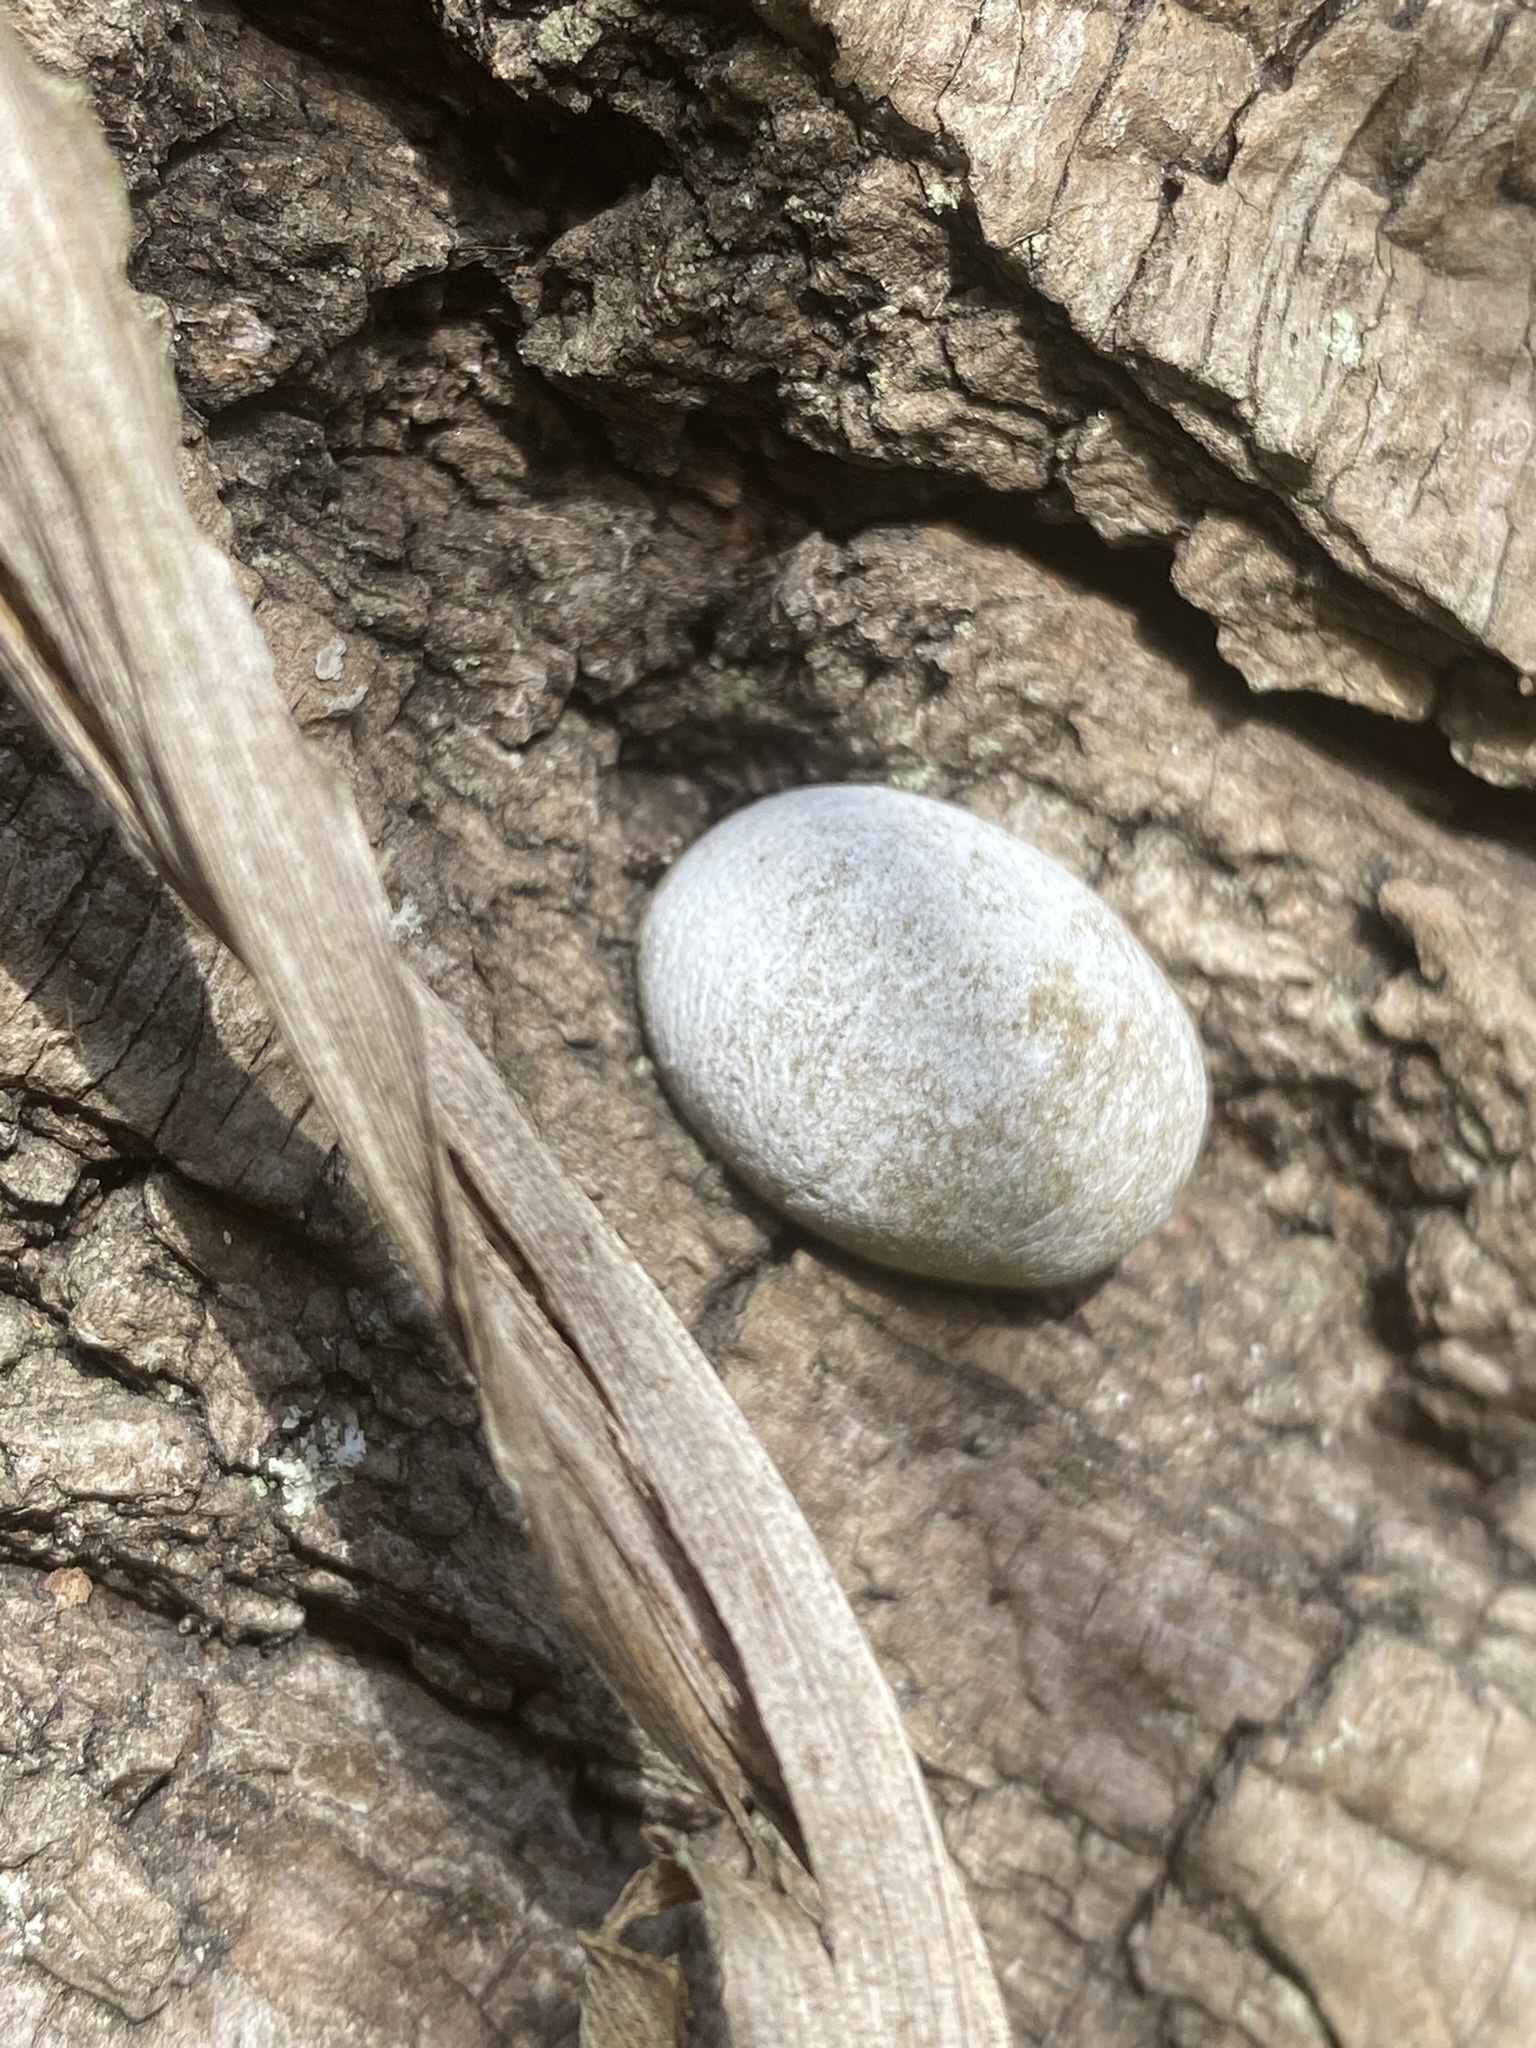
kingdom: Protozoa
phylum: Mycetozoa
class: Myxomycetes
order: Cribrariales
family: Tubiferaceae
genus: Reticularia
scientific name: Reticularia lycoperdon
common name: False puffball
